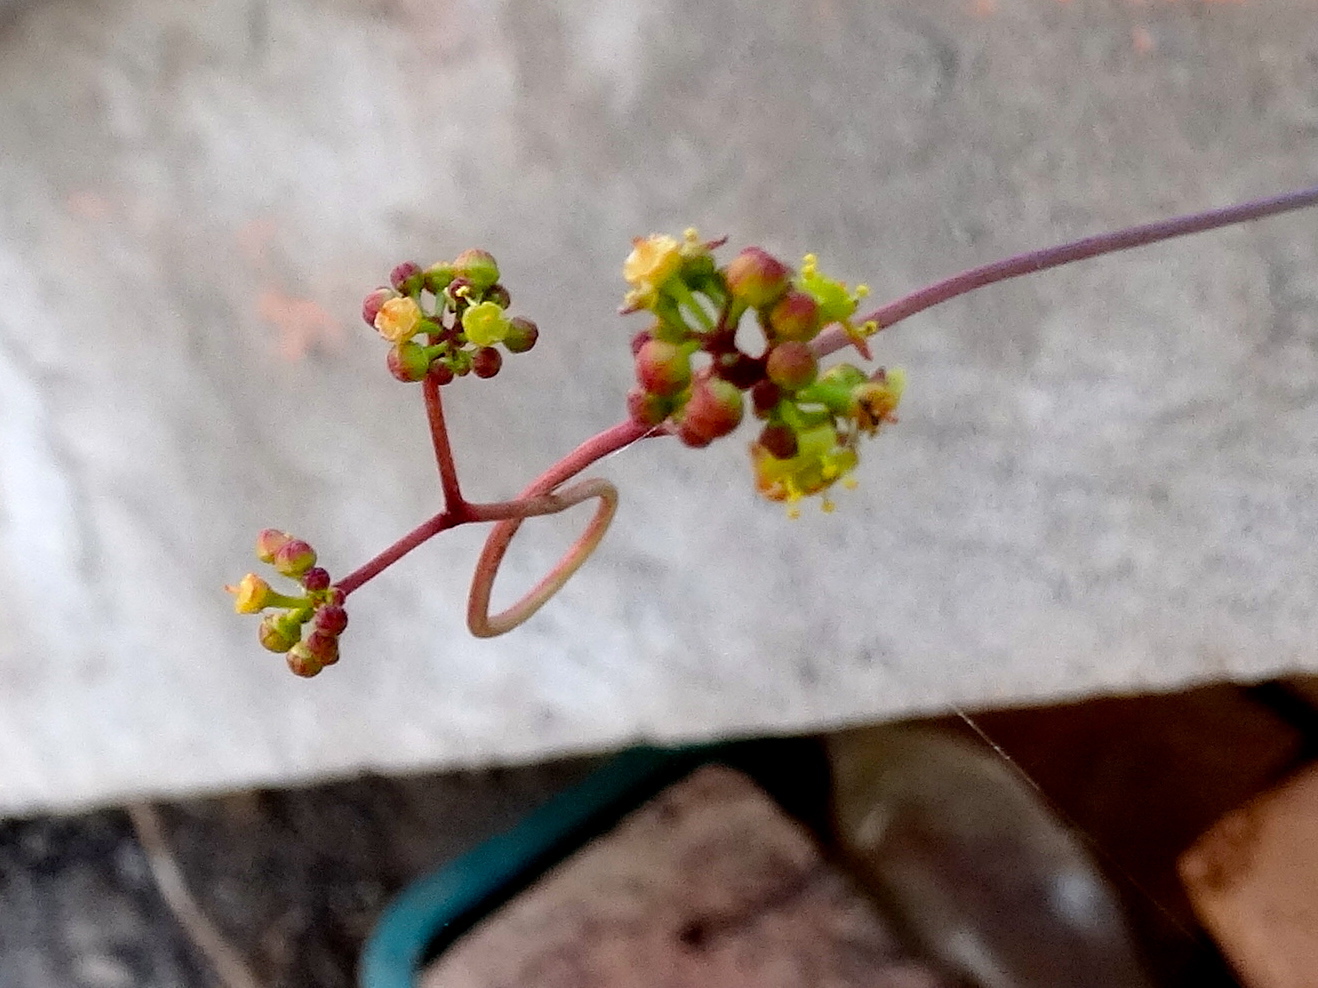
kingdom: Plantae
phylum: Tracheophyta
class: Magnoliopsida
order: Vitales
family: Vitaceae
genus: Parthenocissus
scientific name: Parthenocissus quinquefolia
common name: Virginia-creeper
